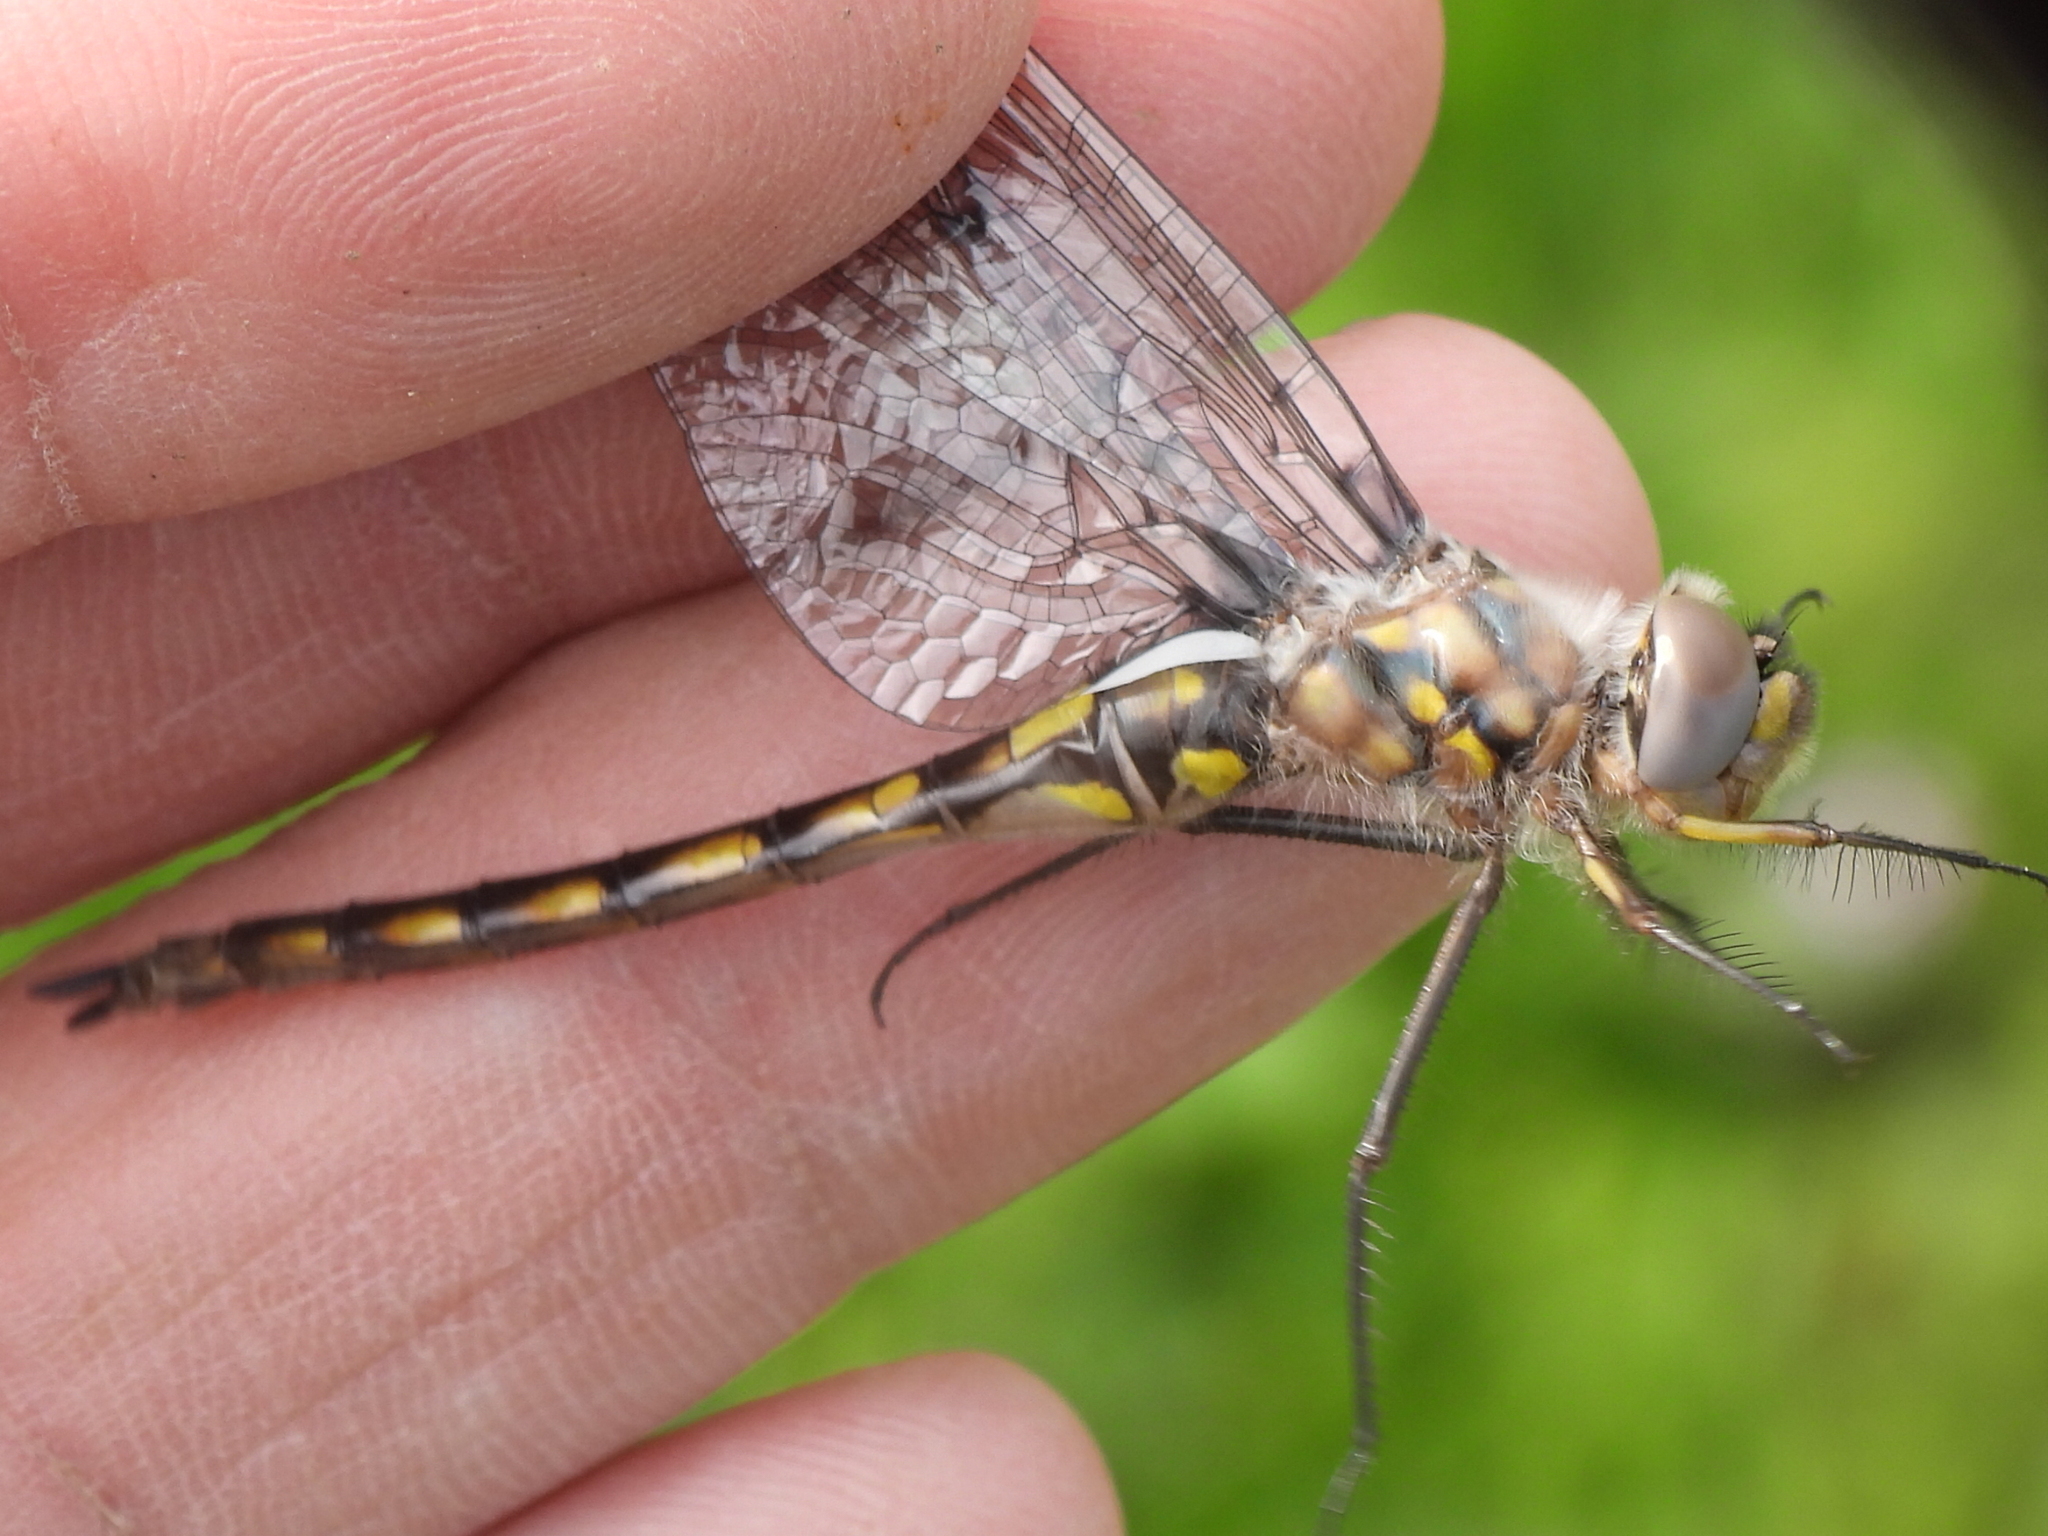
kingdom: Animalia
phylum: Arthropoda
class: Insecta
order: Odonata
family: Corduliidae
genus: Epitheca
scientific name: Epitheca petechialis
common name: Dot-winged baskettail
